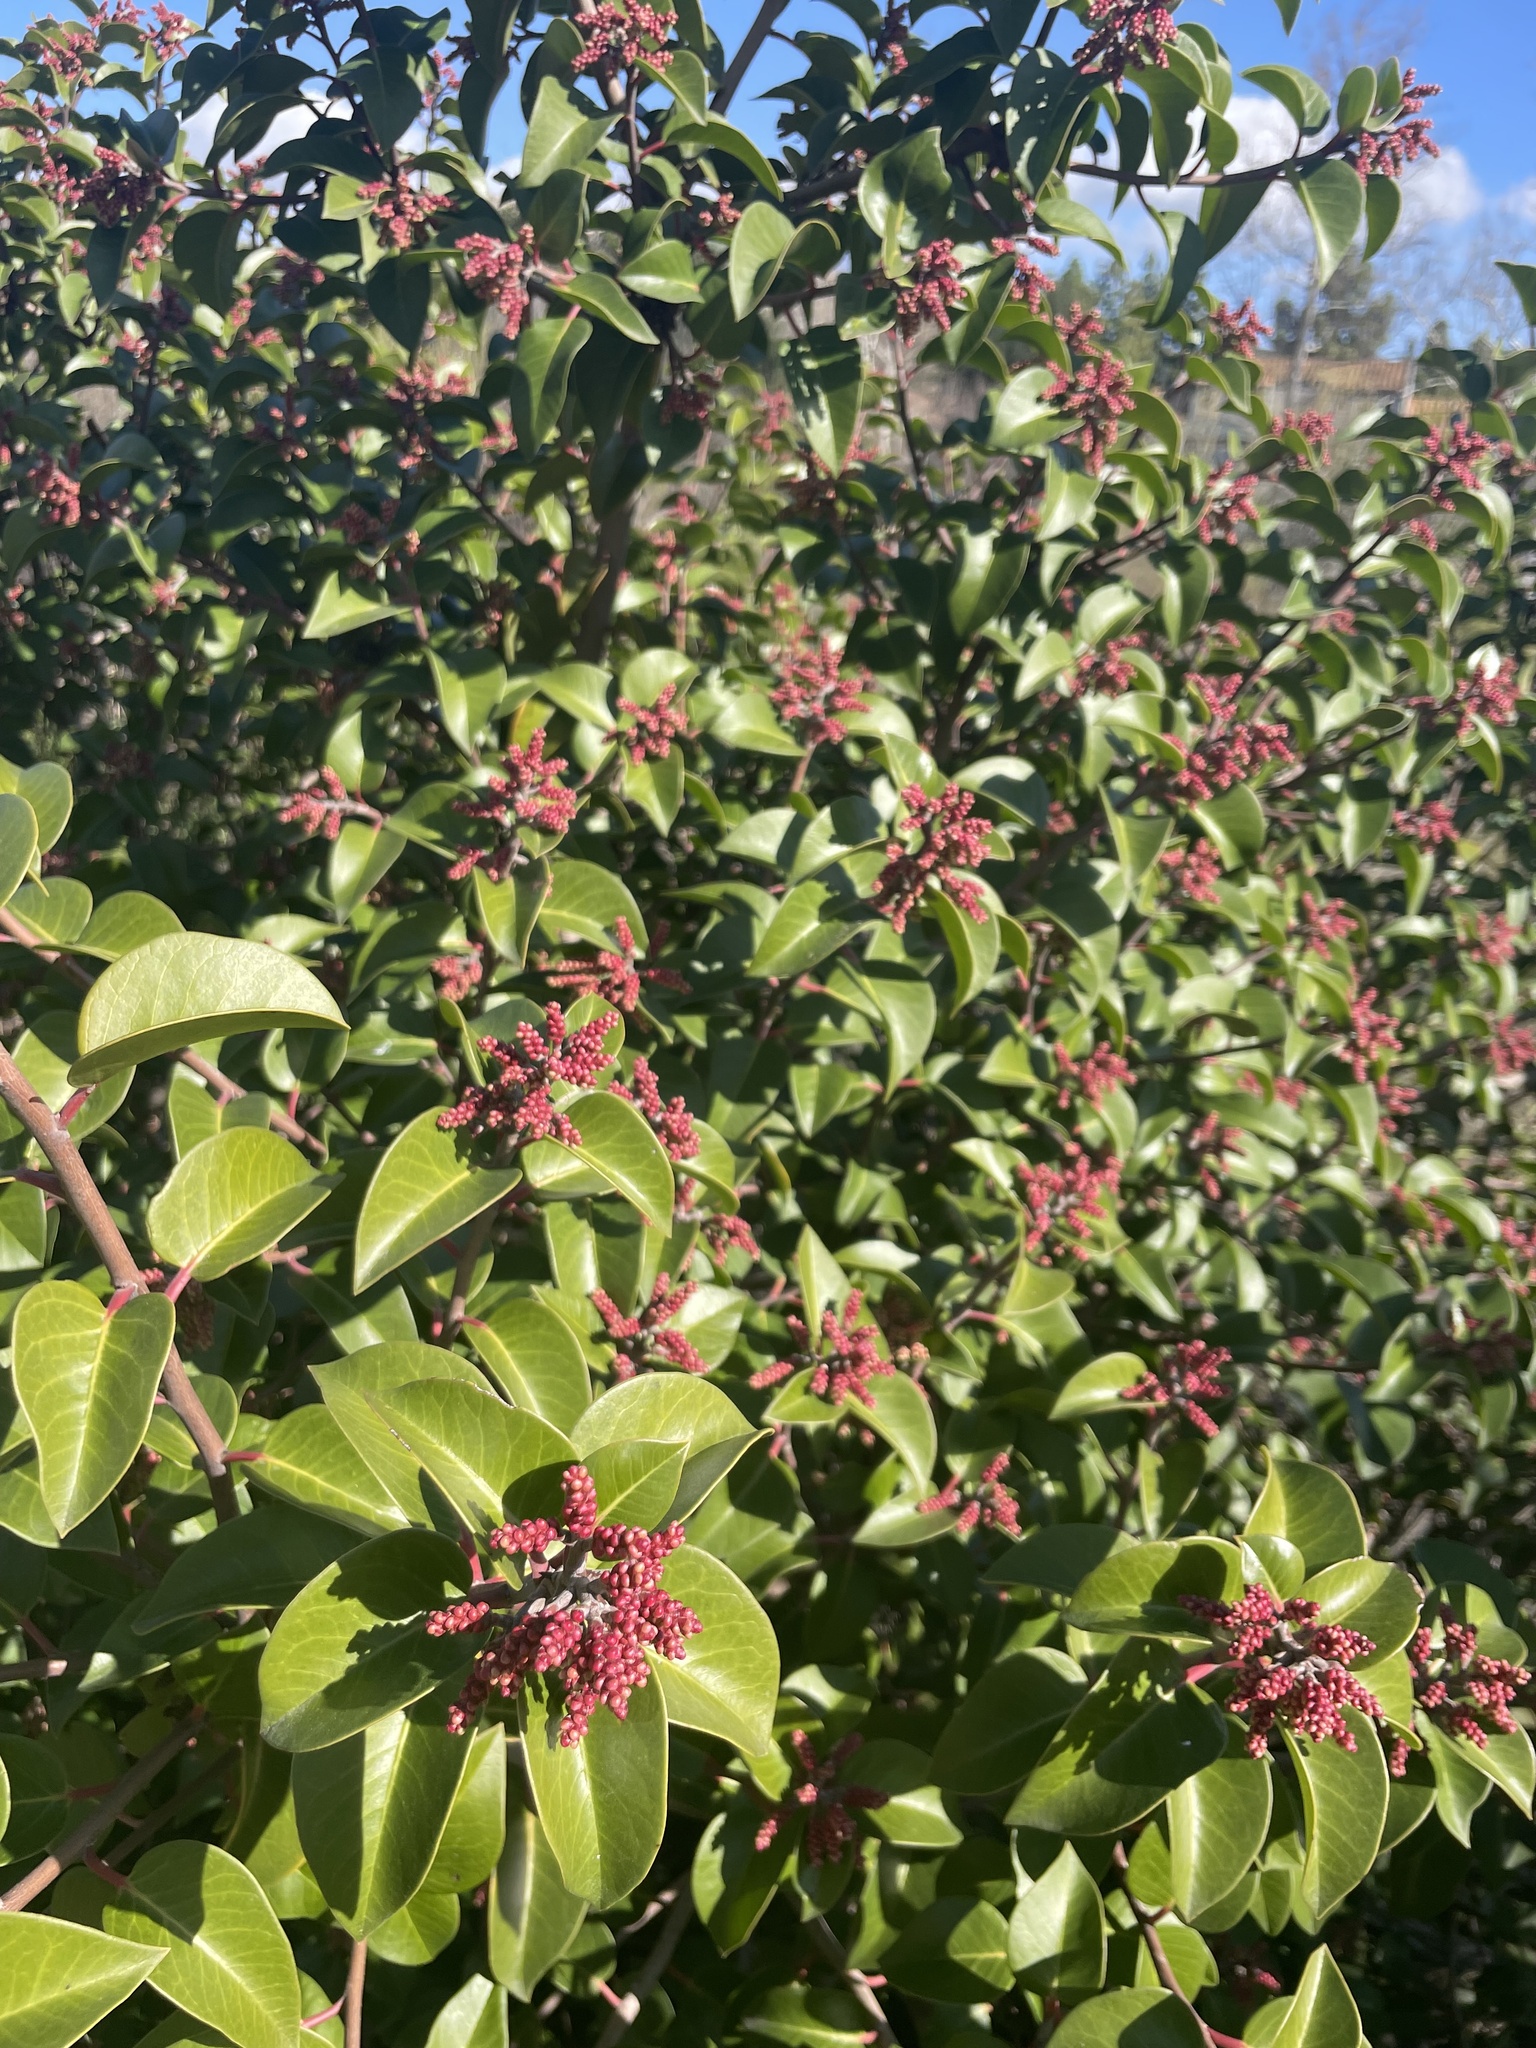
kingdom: Plantae
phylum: Tracheophyta
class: Magnoliopsida
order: Sapindales
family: Anacardiaceae
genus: Rhus
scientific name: Rhus ovata
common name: Sugar sumac
